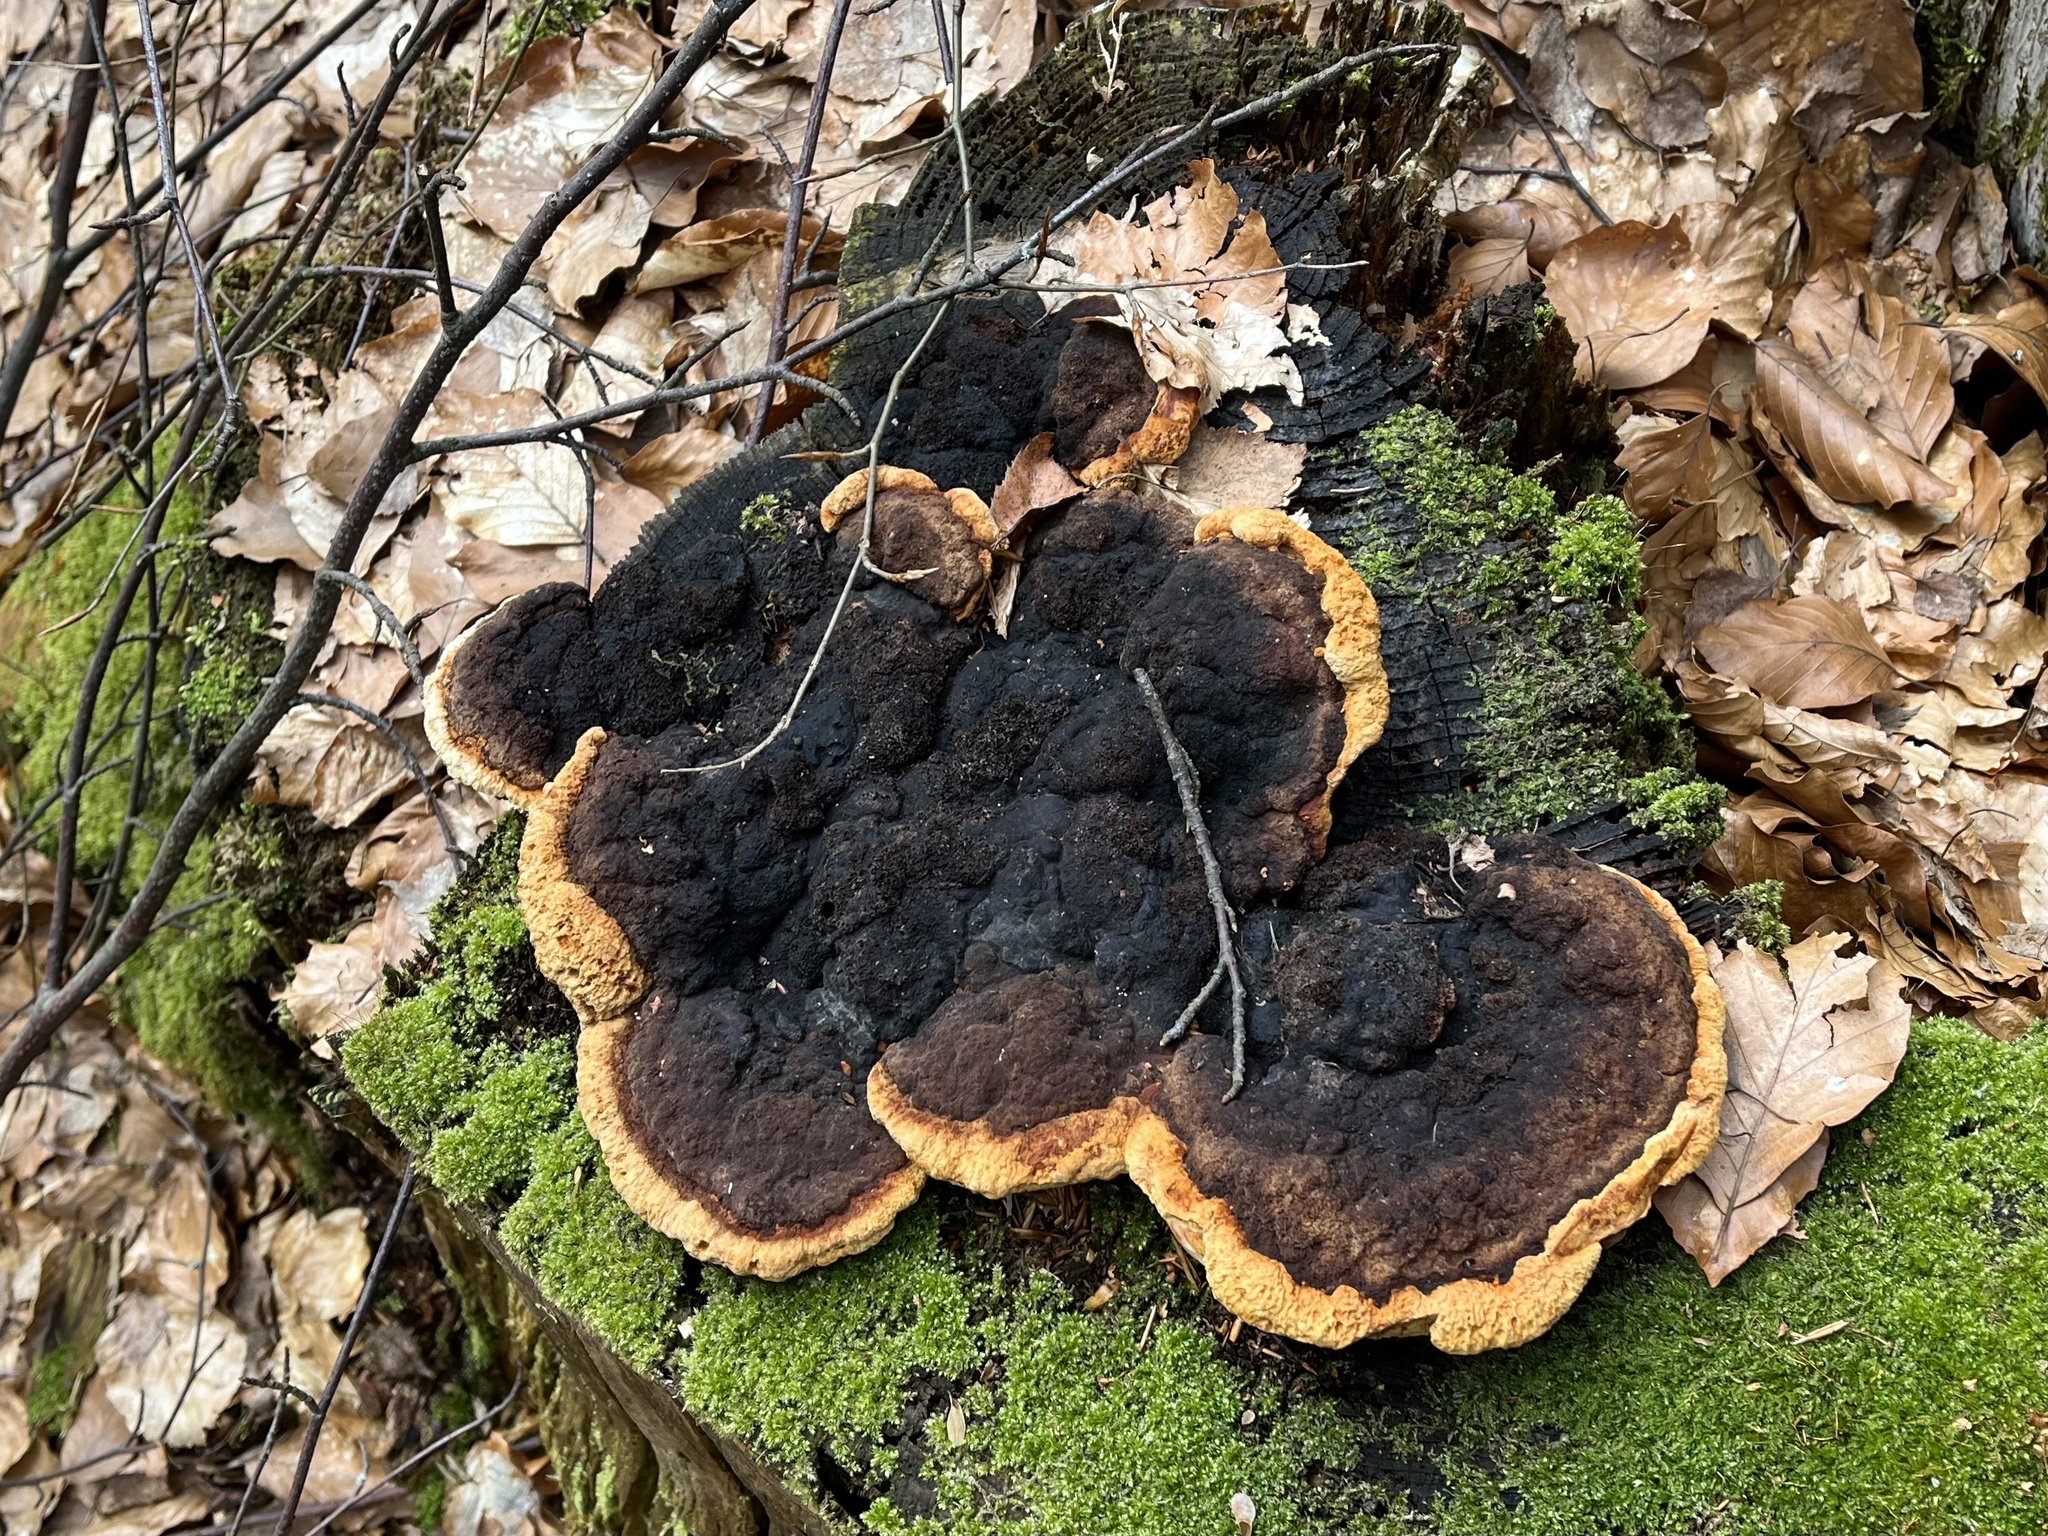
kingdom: Fungi
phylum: Basidiomycota
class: Agaricomycetes
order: Gloeophyllales
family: Gloeophyllaceae
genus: Gloeophyllum
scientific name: Gloeophyllum odoratum
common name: Anise mazegill
